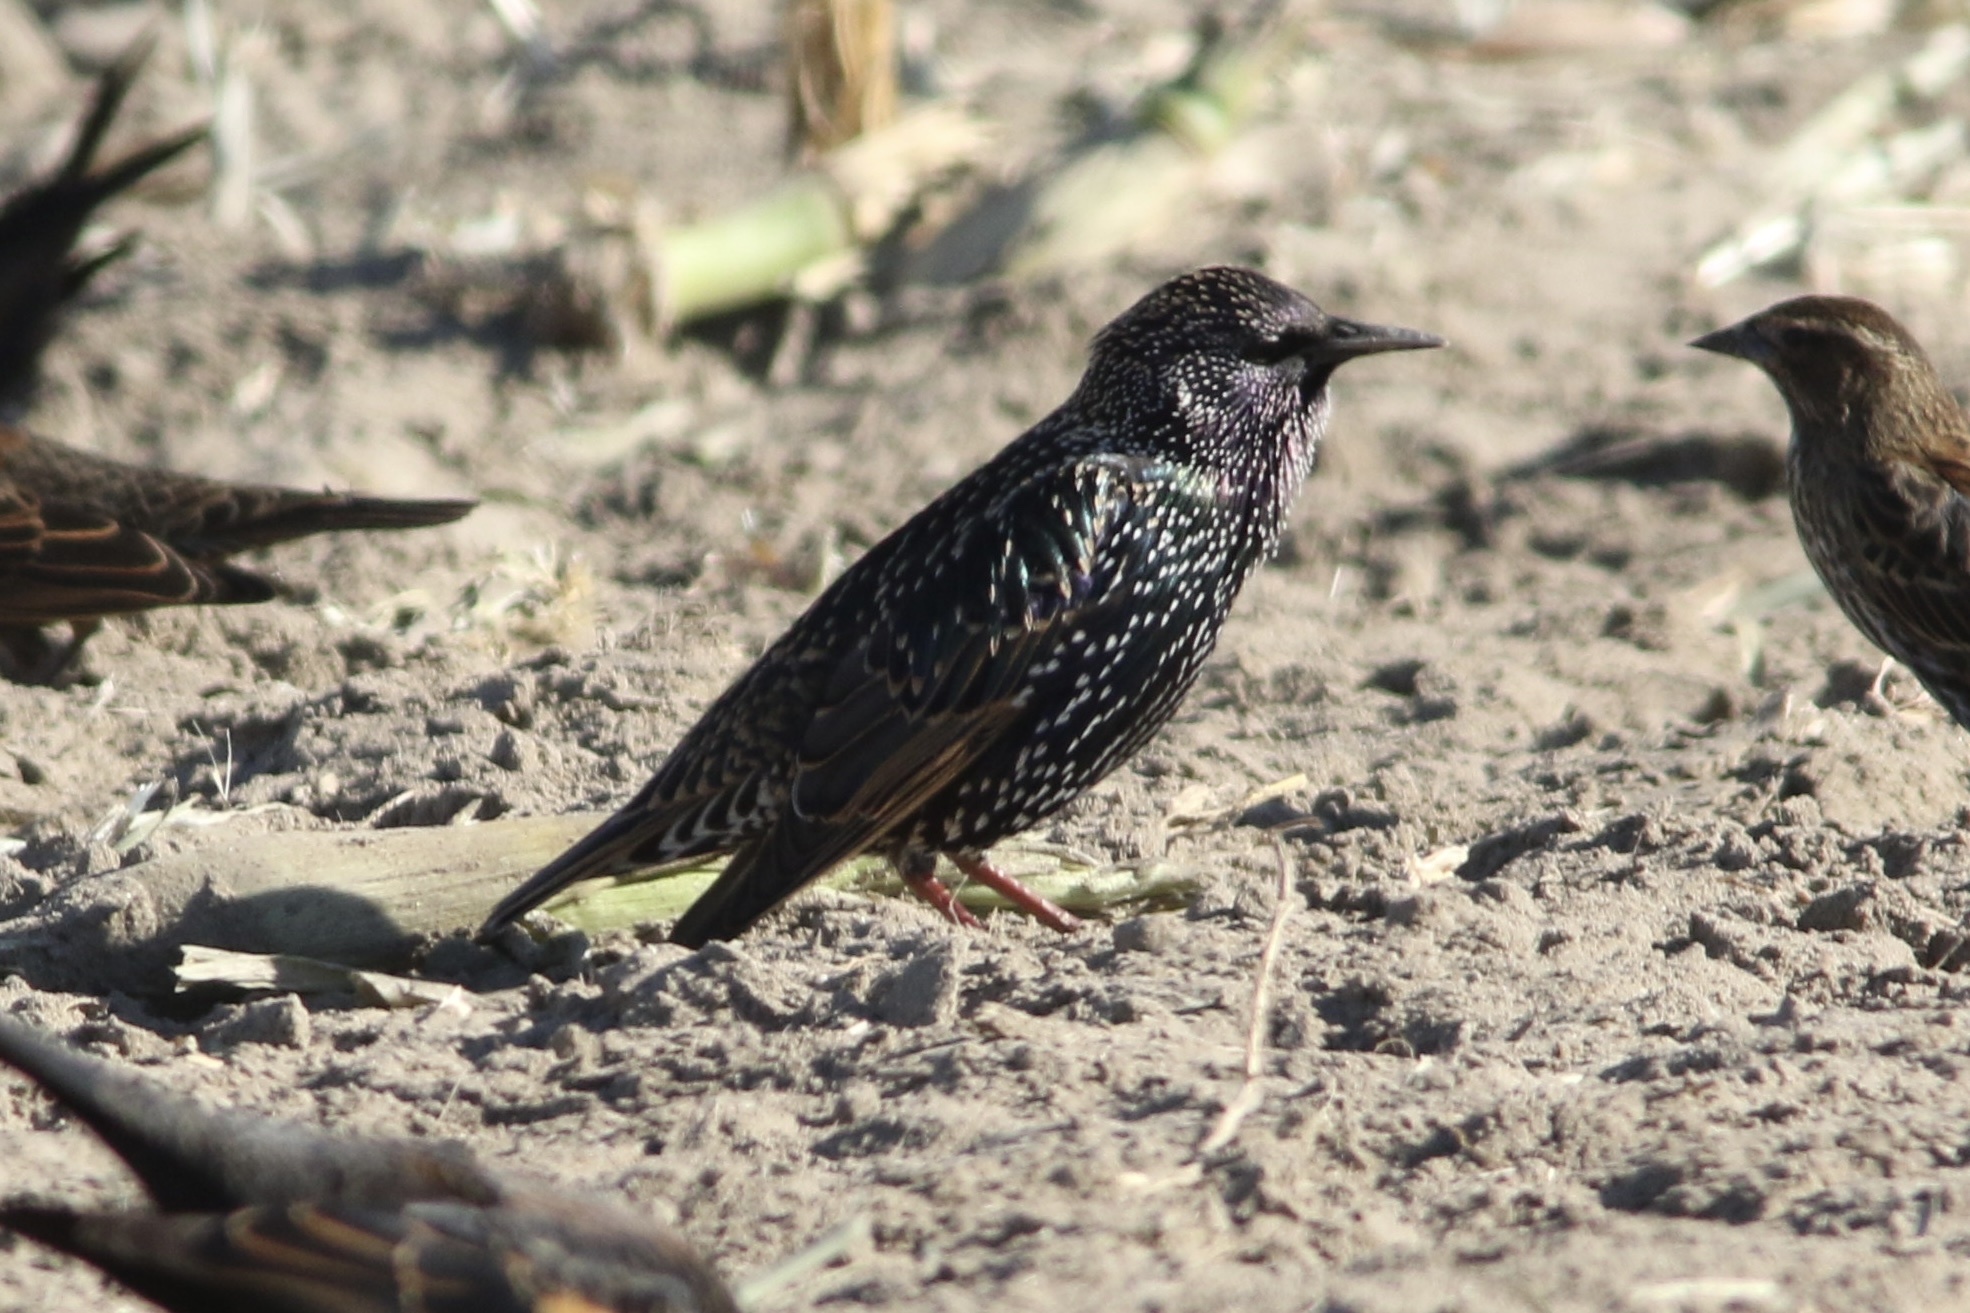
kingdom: Animalia
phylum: Chordata
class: Aves
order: Passeriformes
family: Sturnidae
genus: Sturnus
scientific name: Sturnus vulgaris
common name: Common starling
